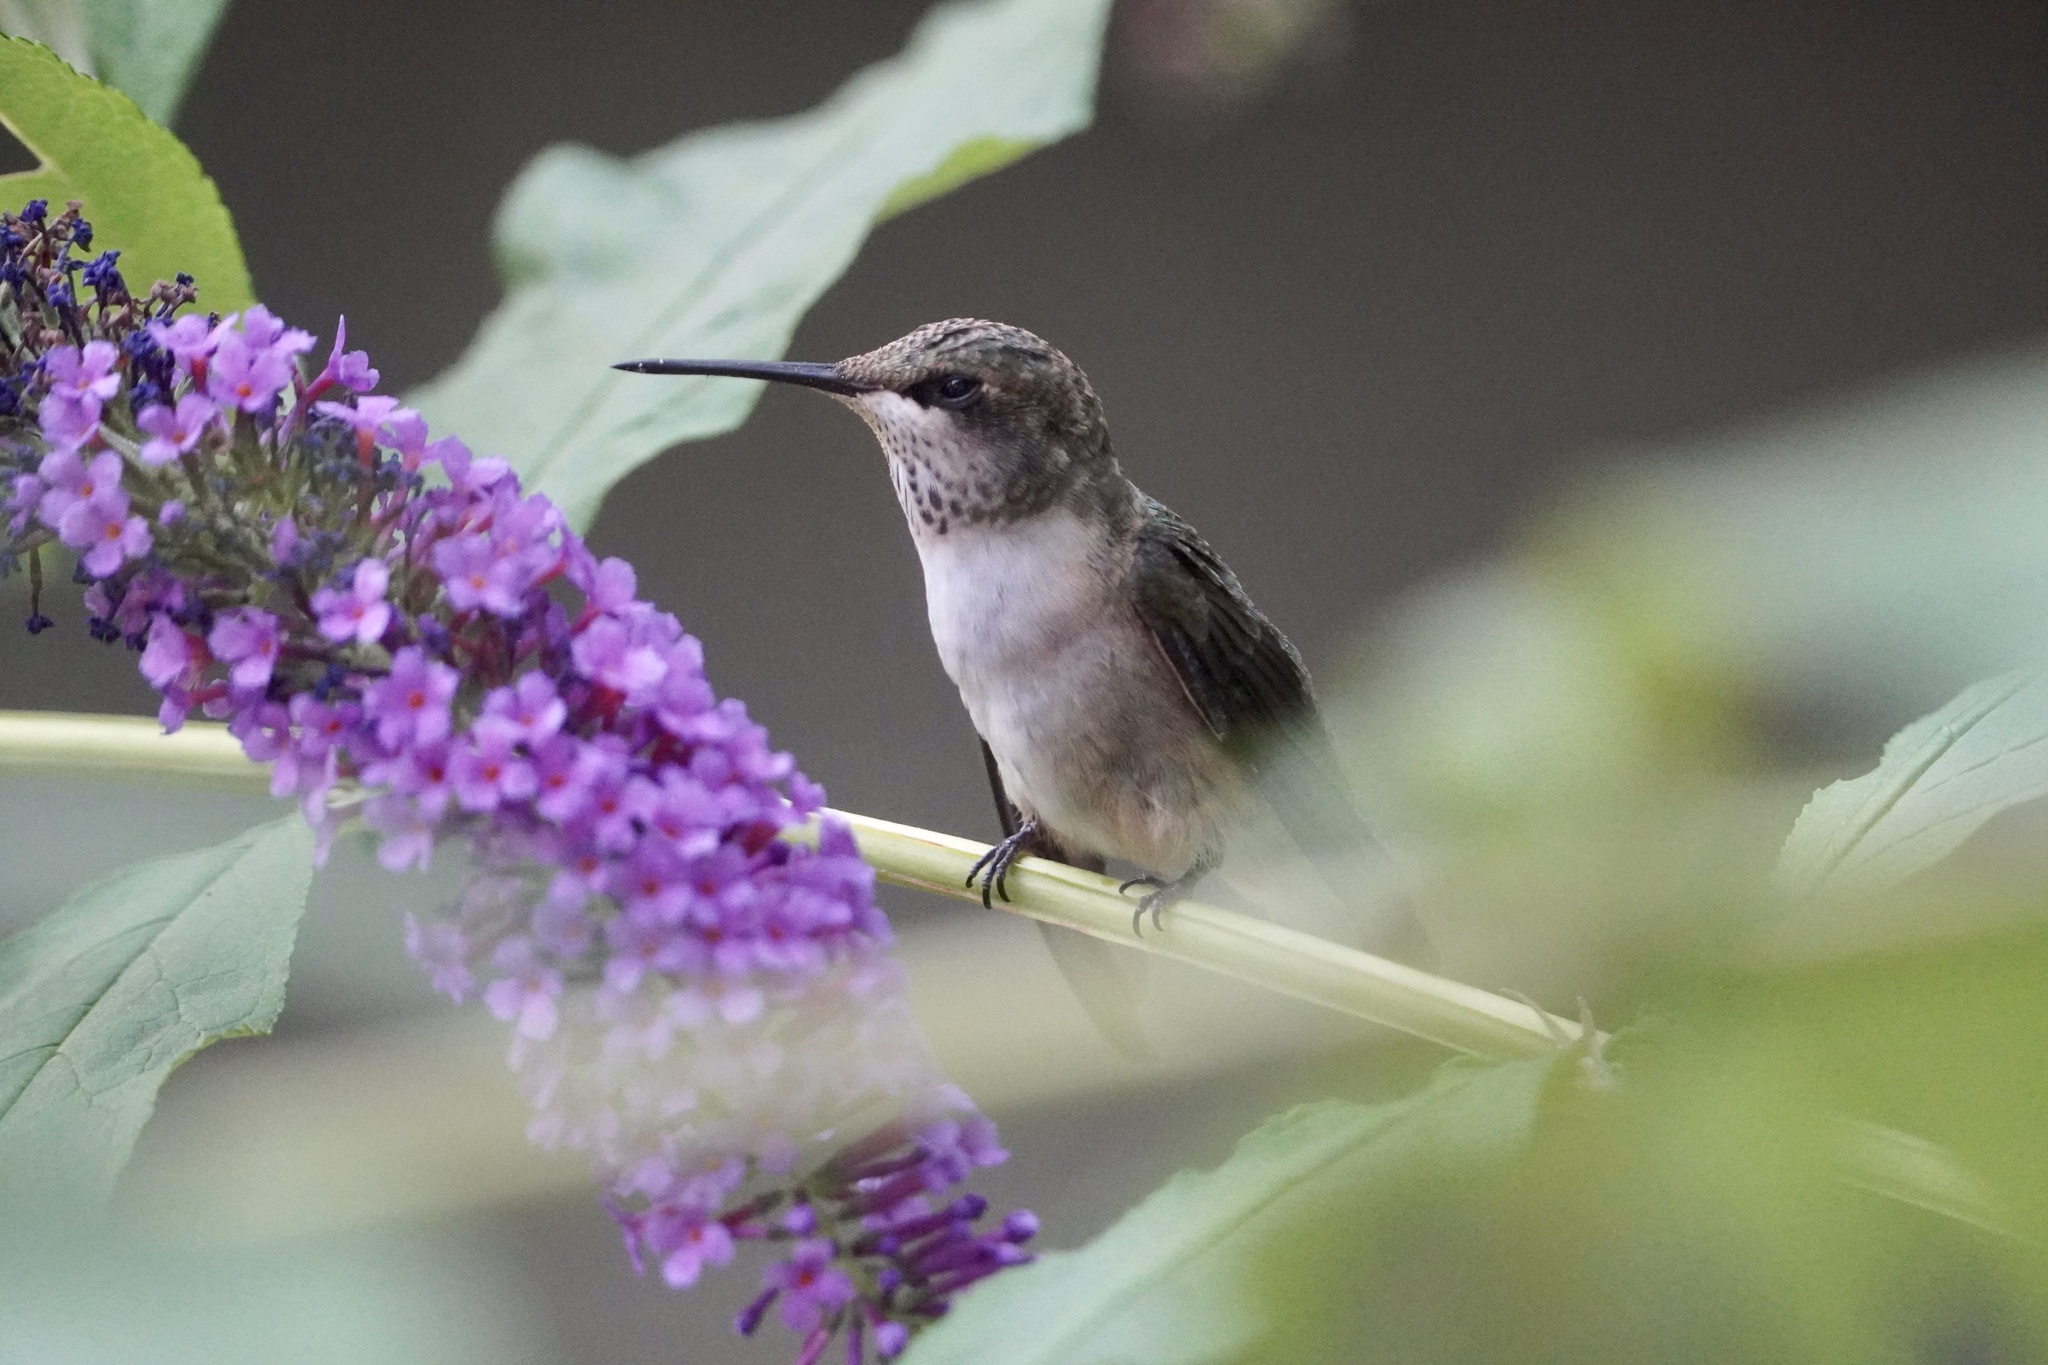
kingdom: Animalia
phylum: Chordata
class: Aves
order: Apodiformes
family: Trochilidae
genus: Archilochus
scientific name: Archilochus colubris
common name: Ruby-throated hummingbird
